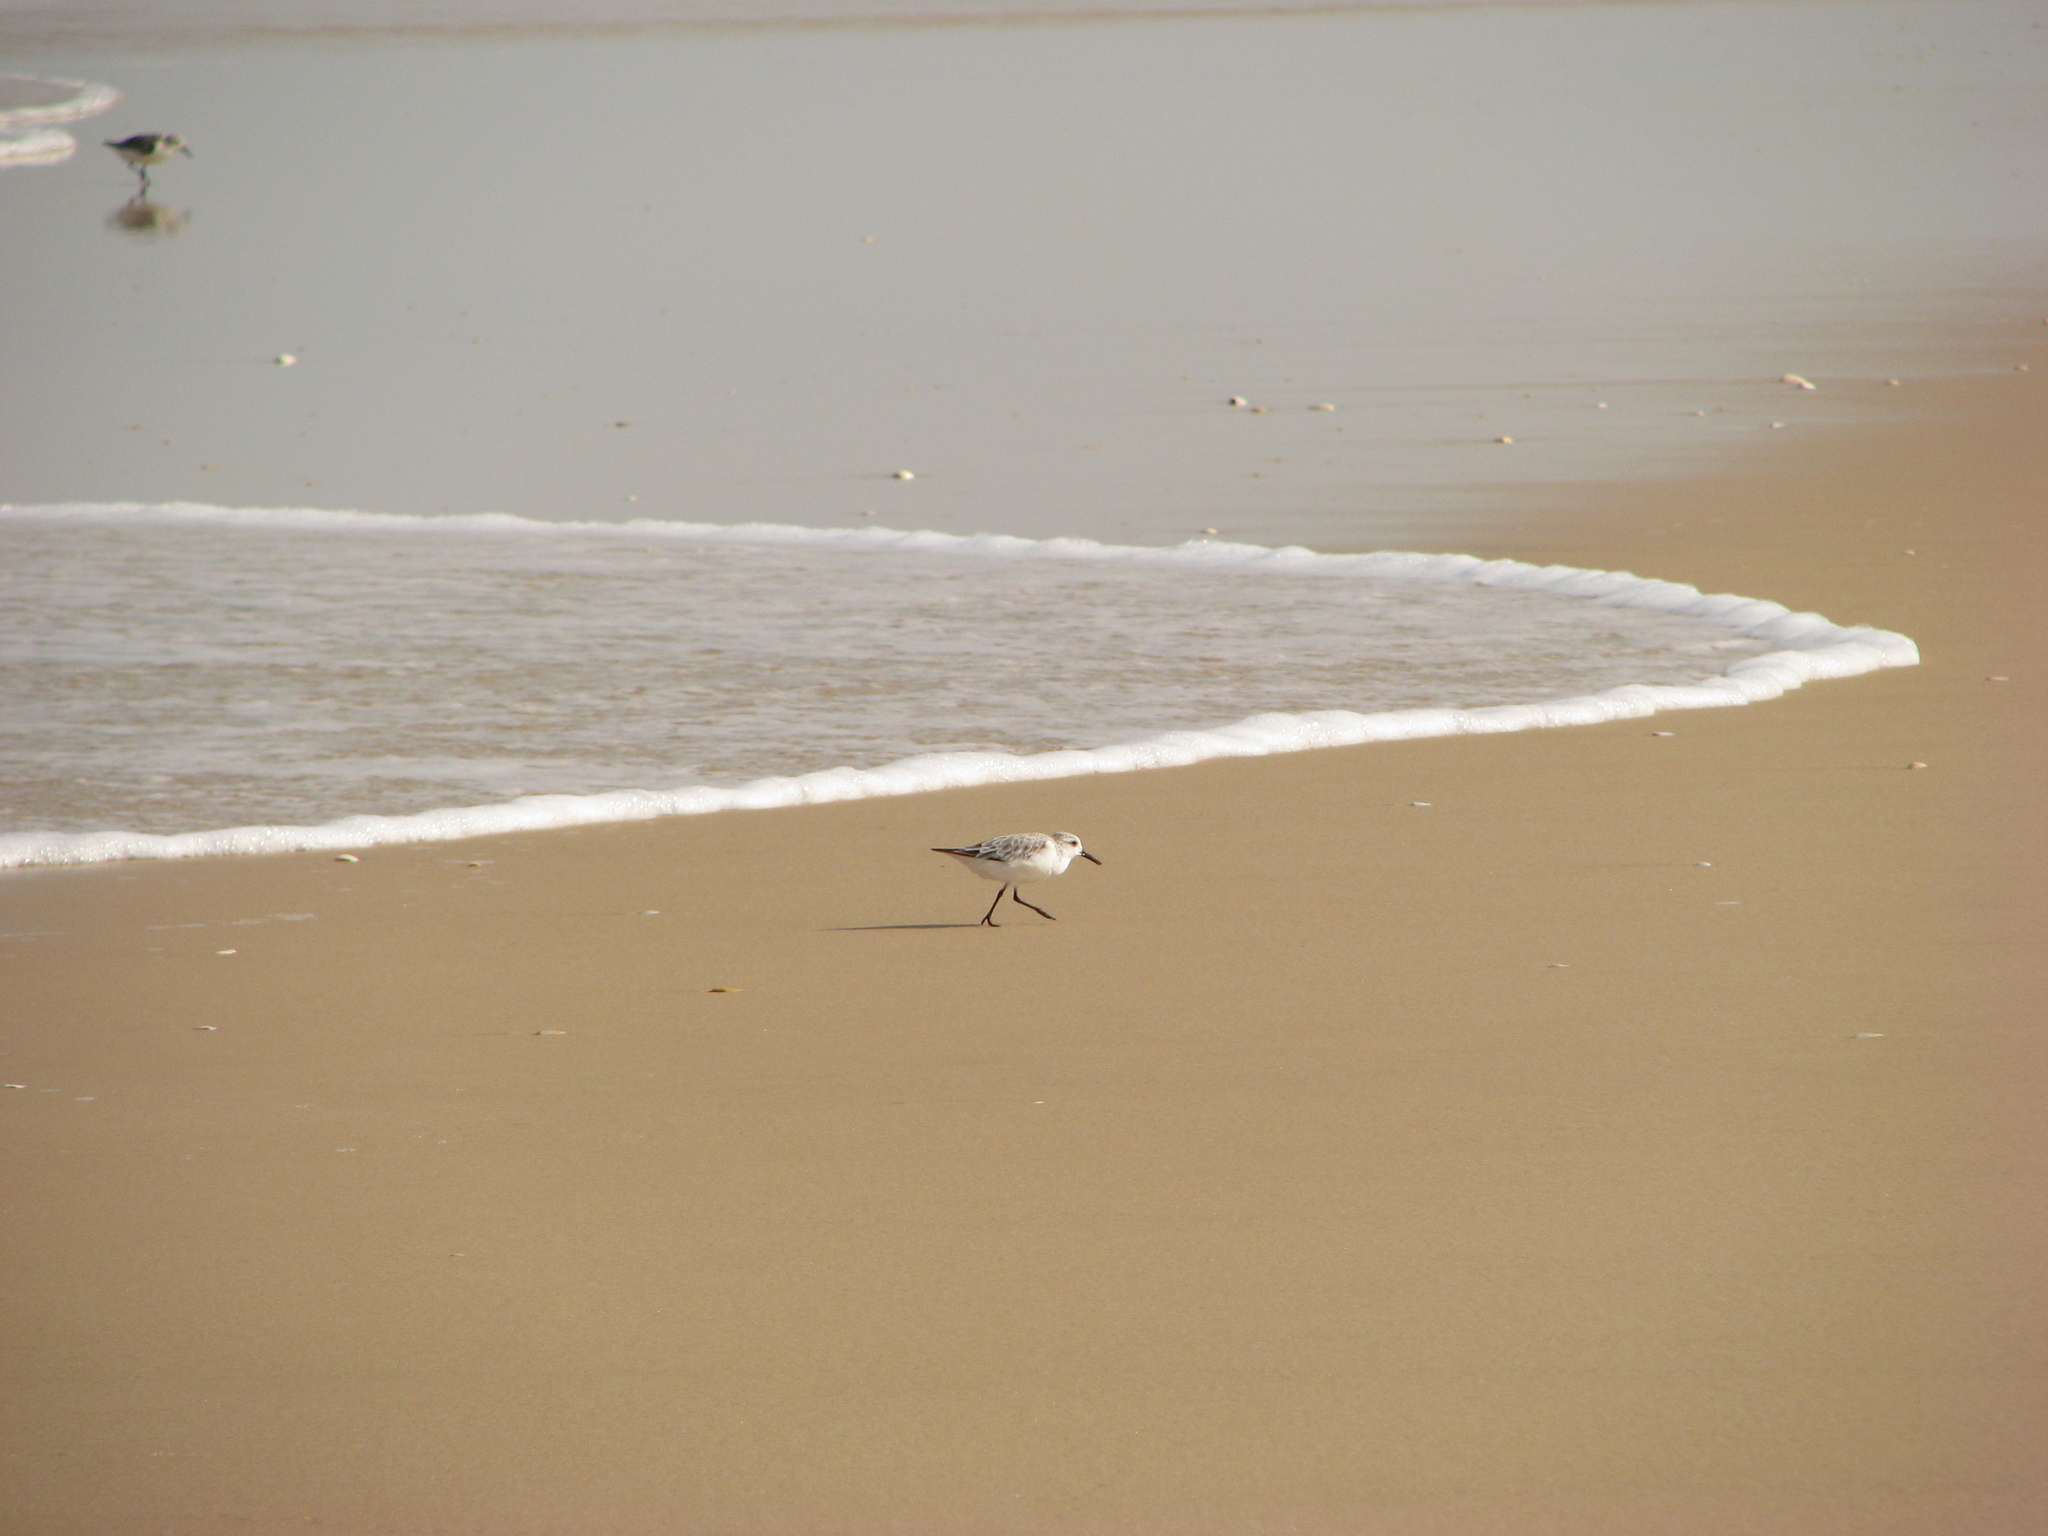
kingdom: Animalia
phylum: Chordata
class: Aves
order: Charadriiformes
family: Scolopacidae
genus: Calidris
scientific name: Calidris alba
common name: Sanderling
